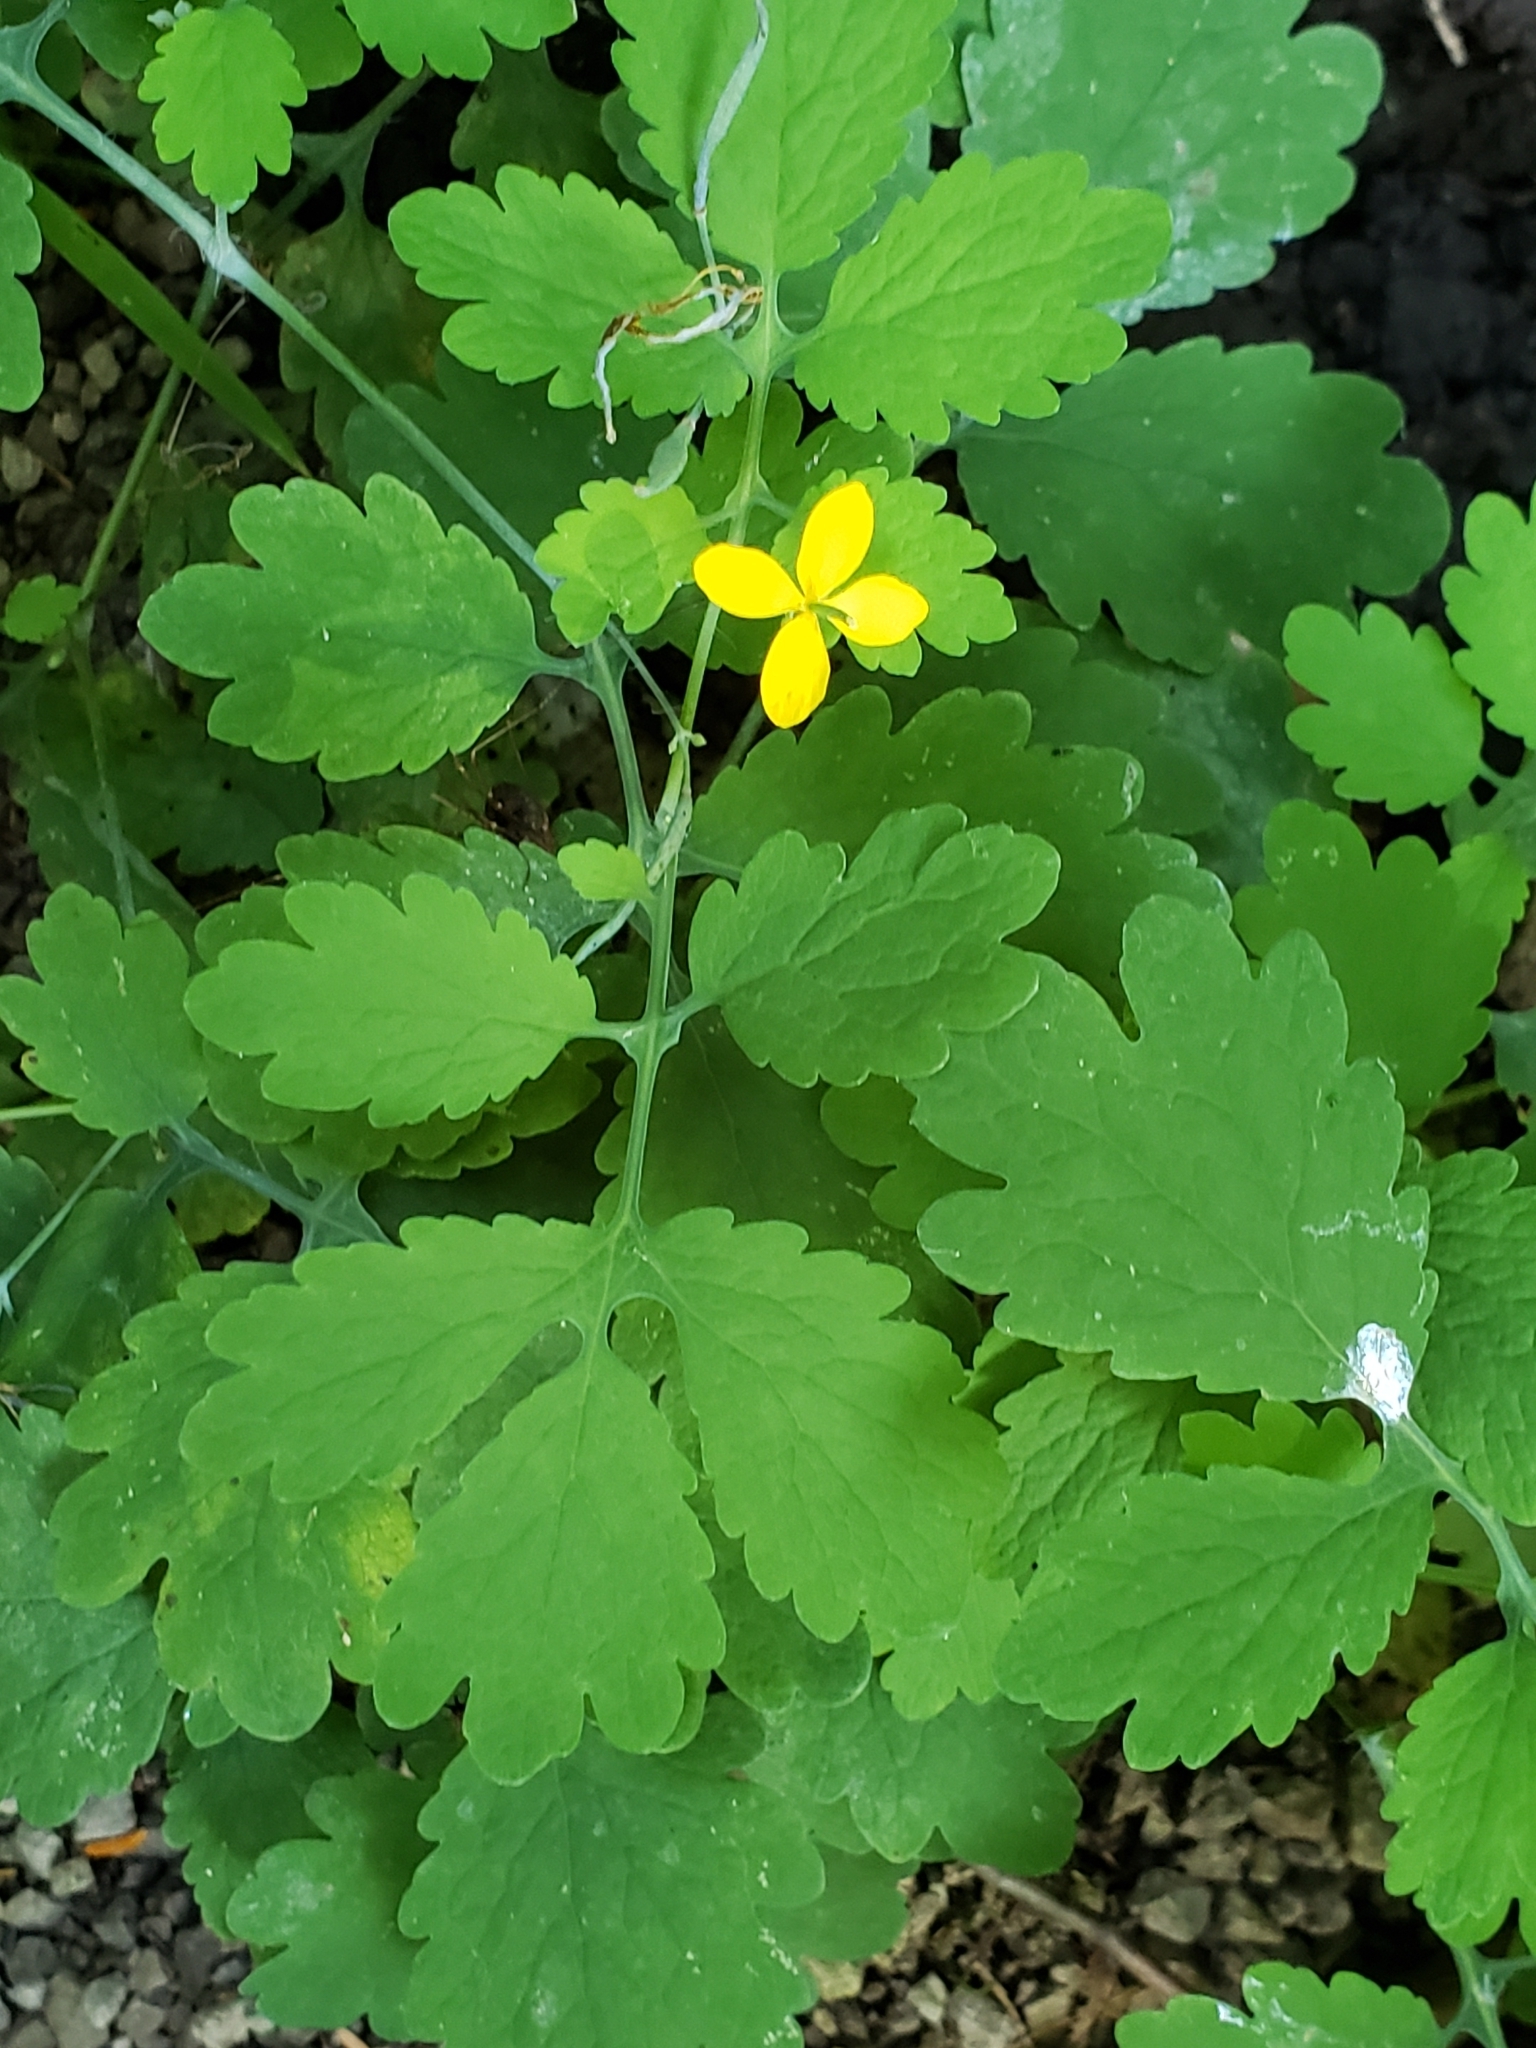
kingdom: Plantae
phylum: Tracheophyta
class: Magnoliopsida
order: Ranunculales
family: Papaveraceae
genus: Chelidonium
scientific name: Chelidonium majus
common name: Greater celandine
